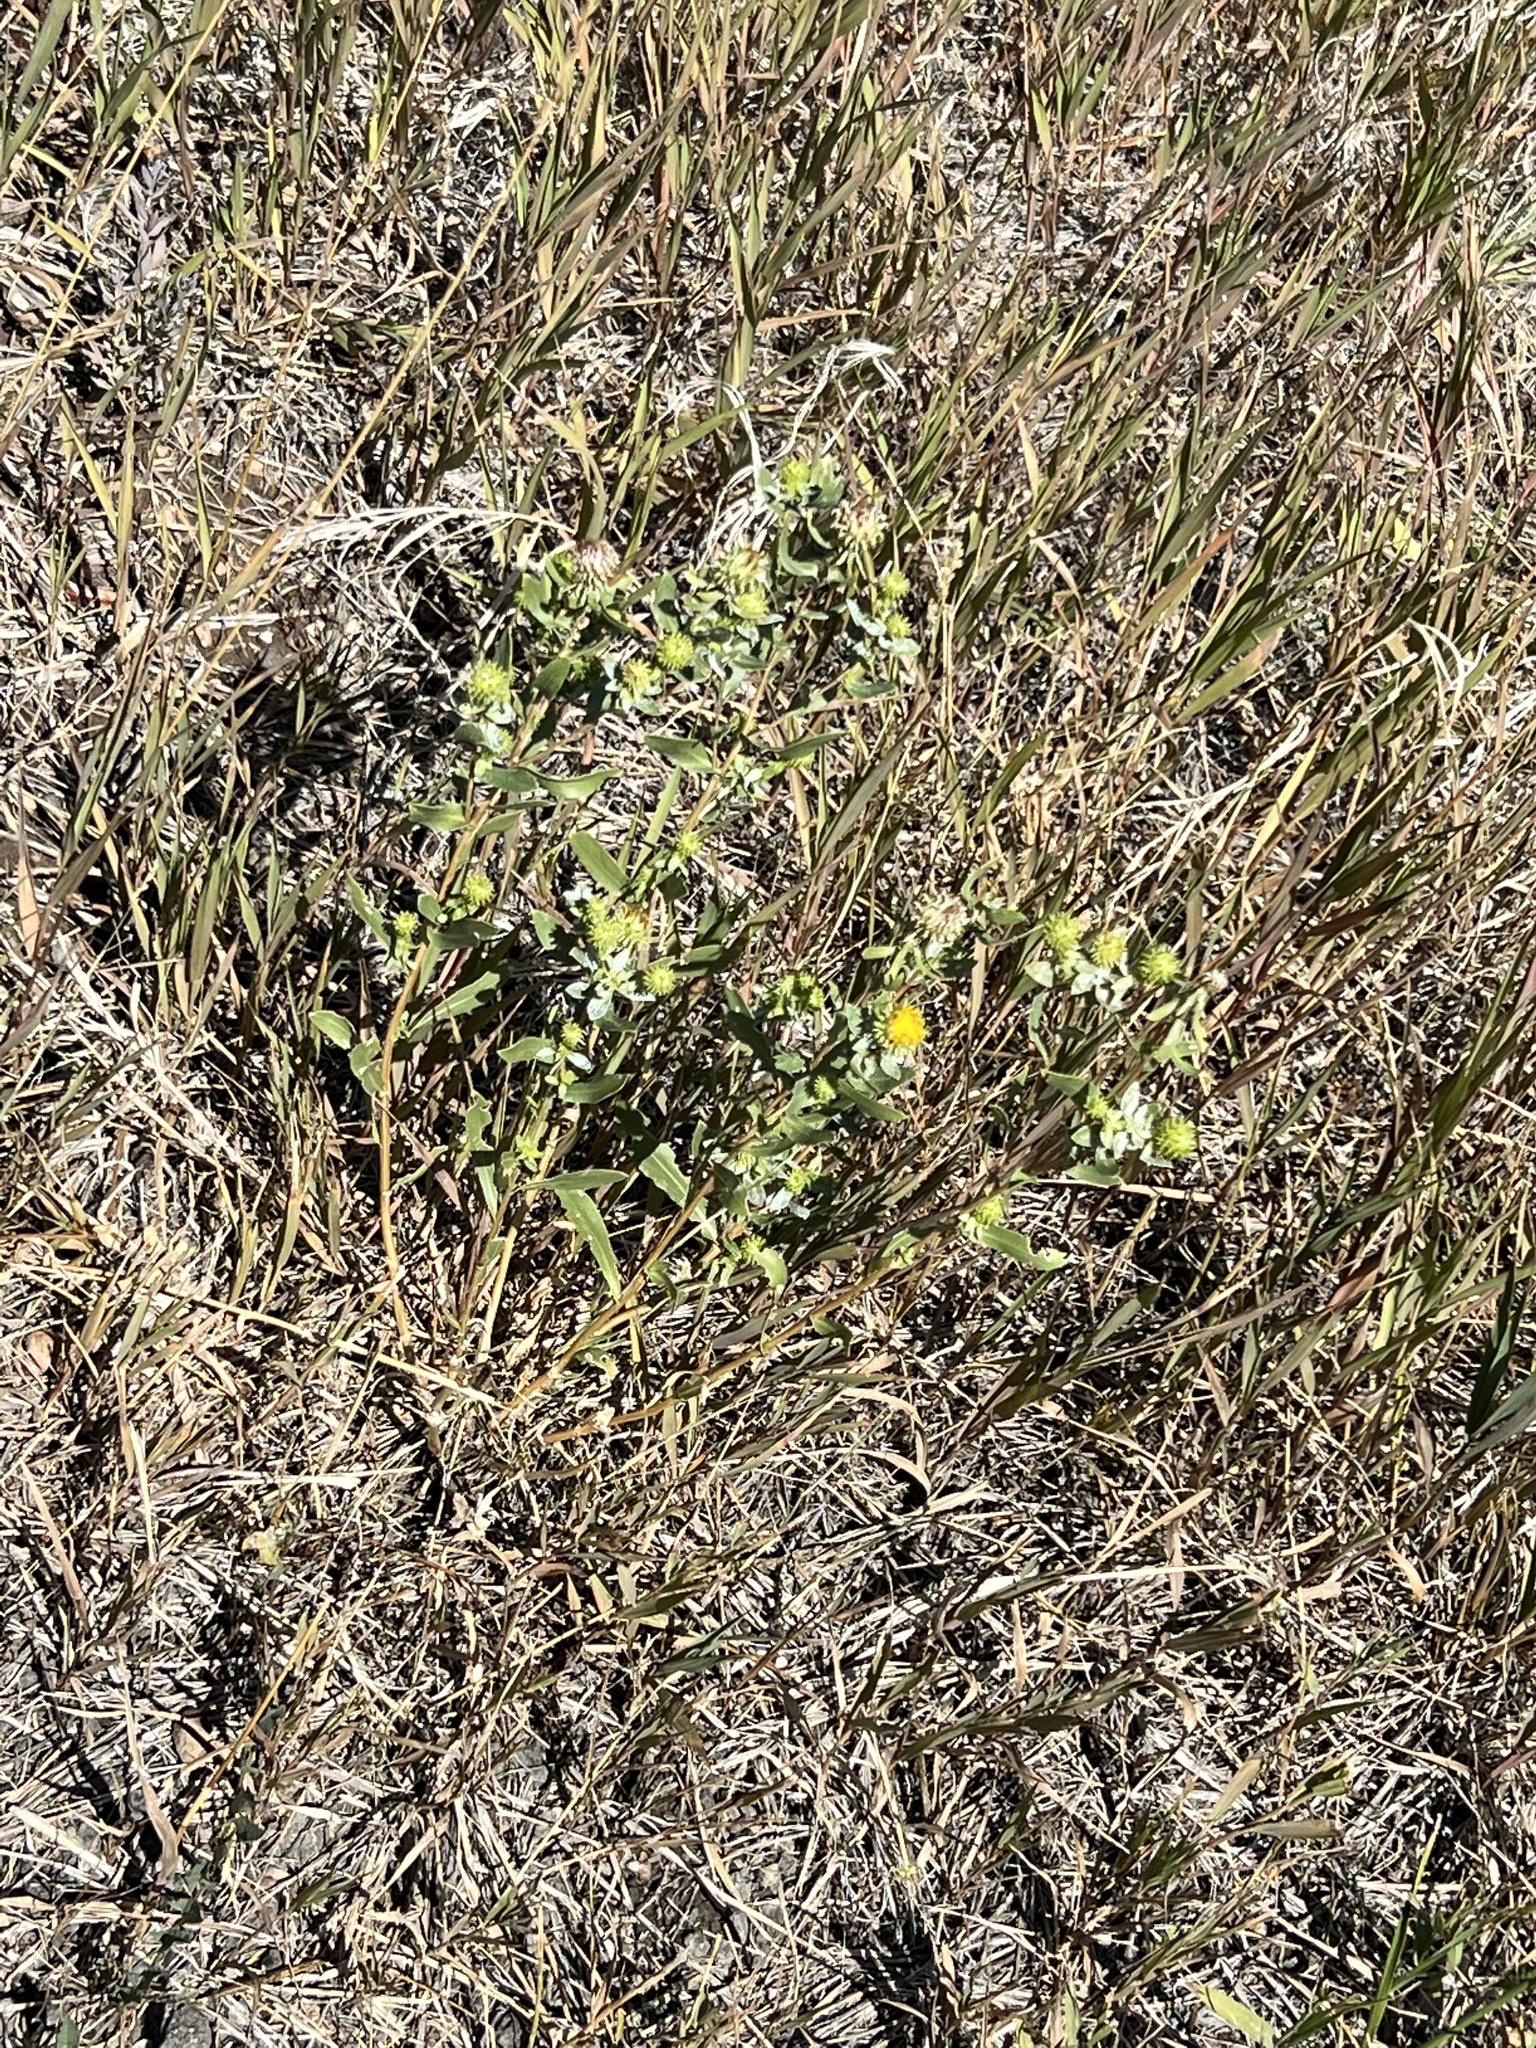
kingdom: Plantae
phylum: Tracheophyta
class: Magnoliopsida
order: Asterales
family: Asteraceae
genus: Grindelia
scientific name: Grindelia hirsutula
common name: Hairy gumweed
